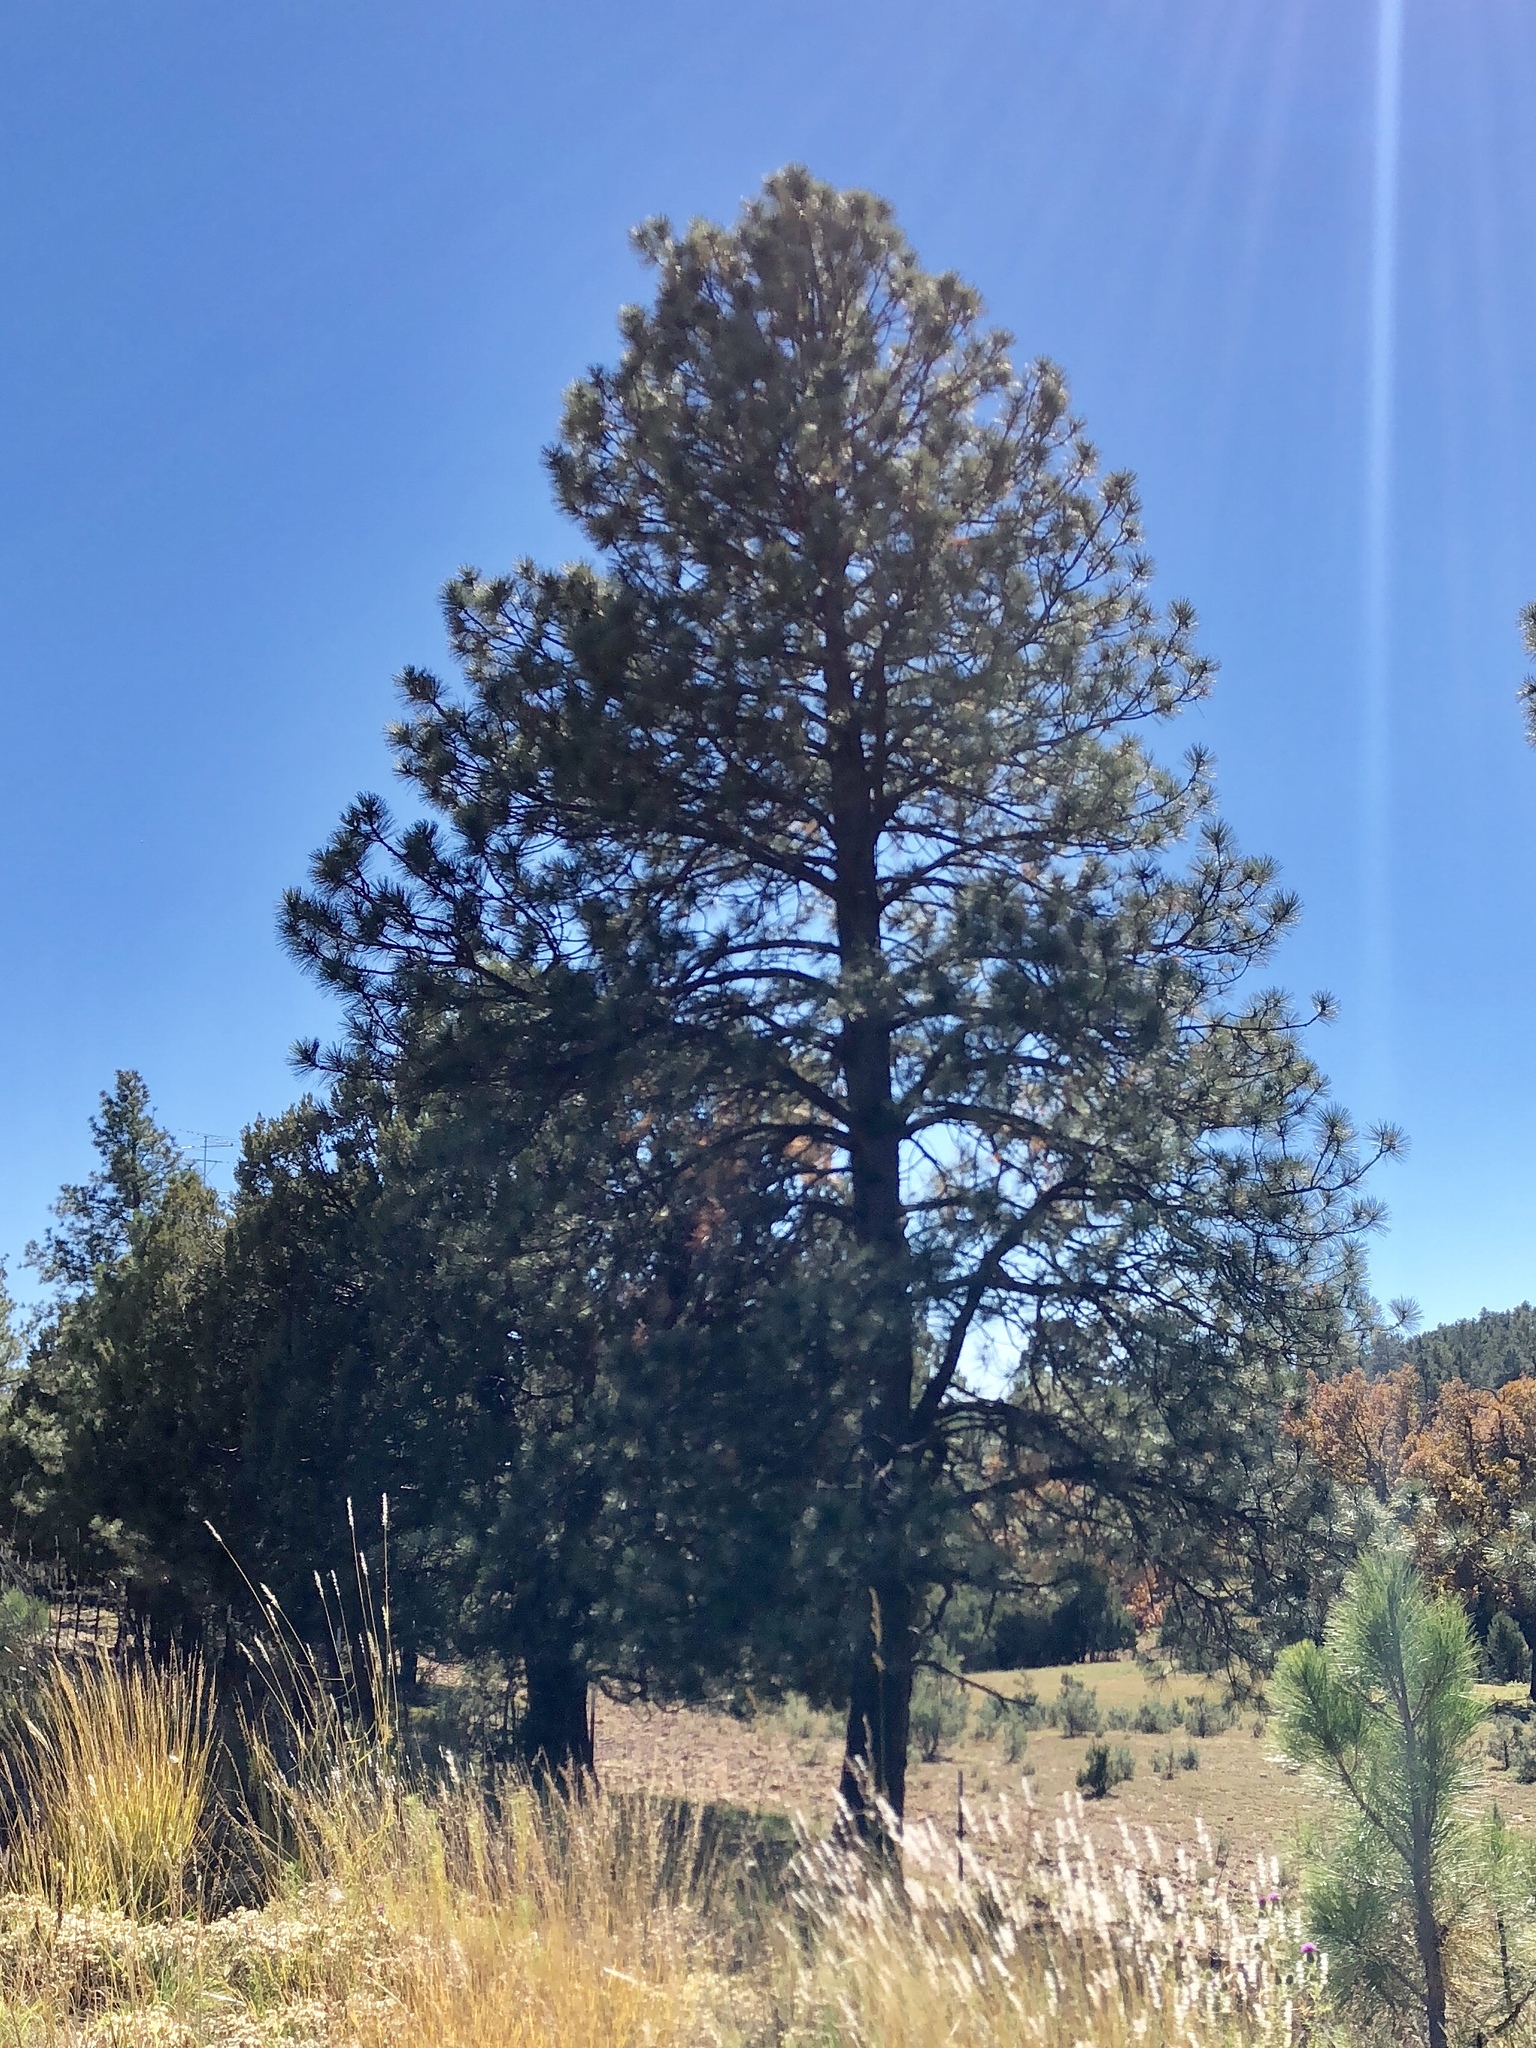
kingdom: Plantae
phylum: Tracheophyta
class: Pinopsida
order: Pinales
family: Pinaceae
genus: Pinus
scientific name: Pinus ponderosa
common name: Western yellow-pine
